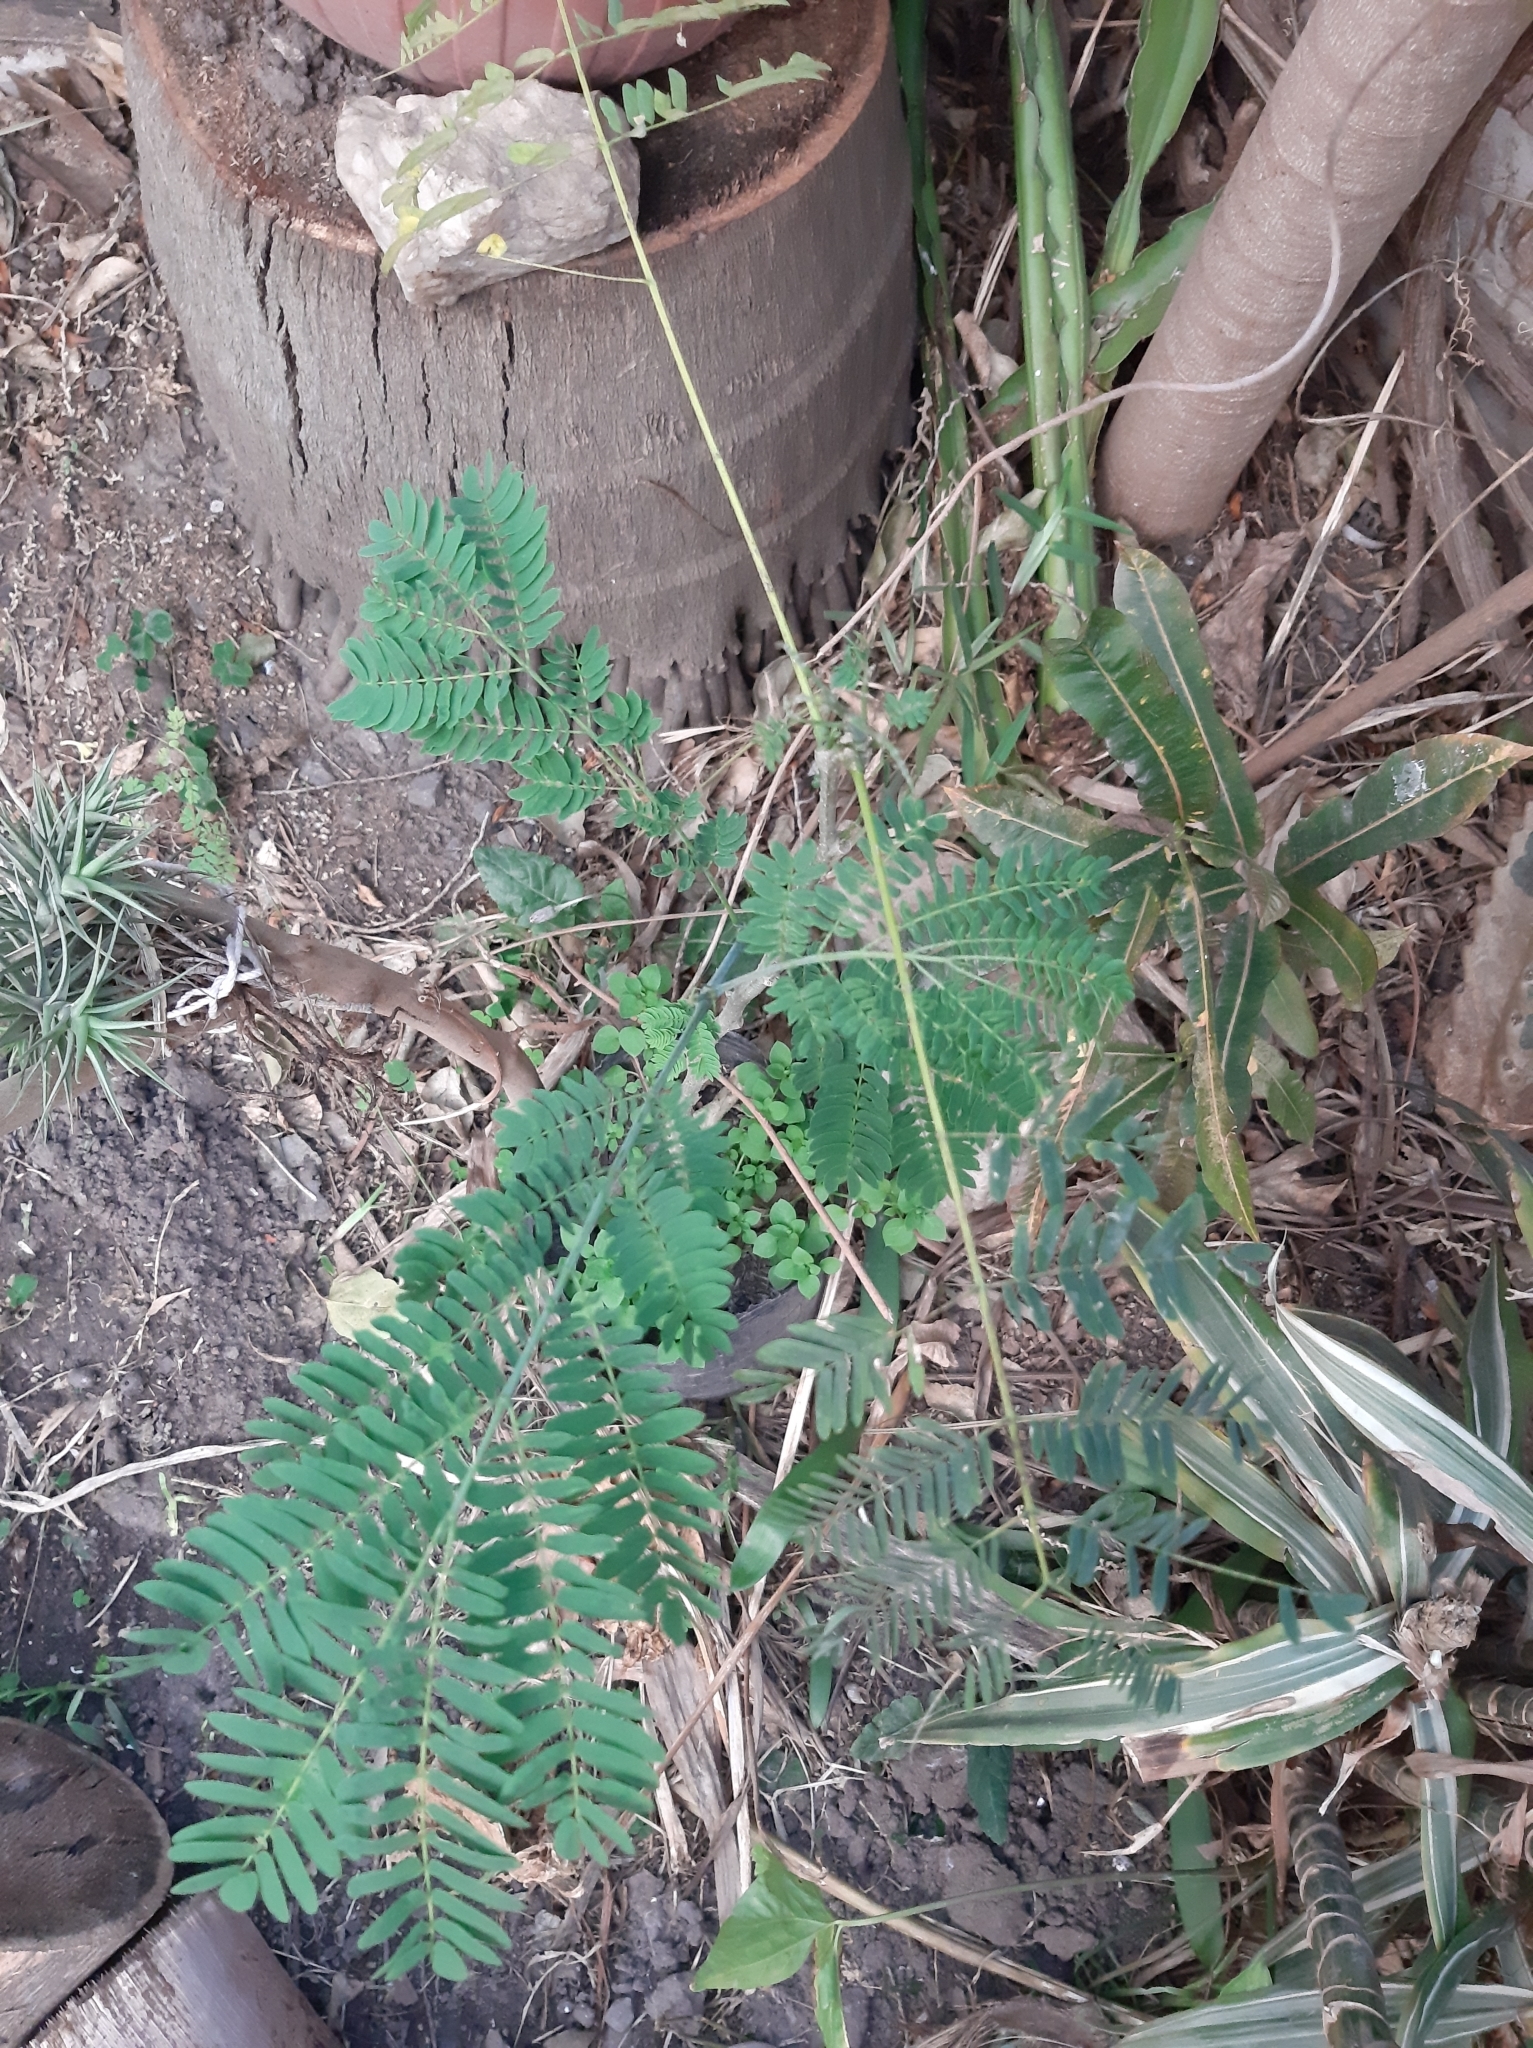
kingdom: Plantae
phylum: Tracheophyta
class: Magnoliopsida
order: Fabales
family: Fabaceae
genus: Enterolobium
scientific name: Enterolobium contortisiliquum
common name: Pacara earpod tree
